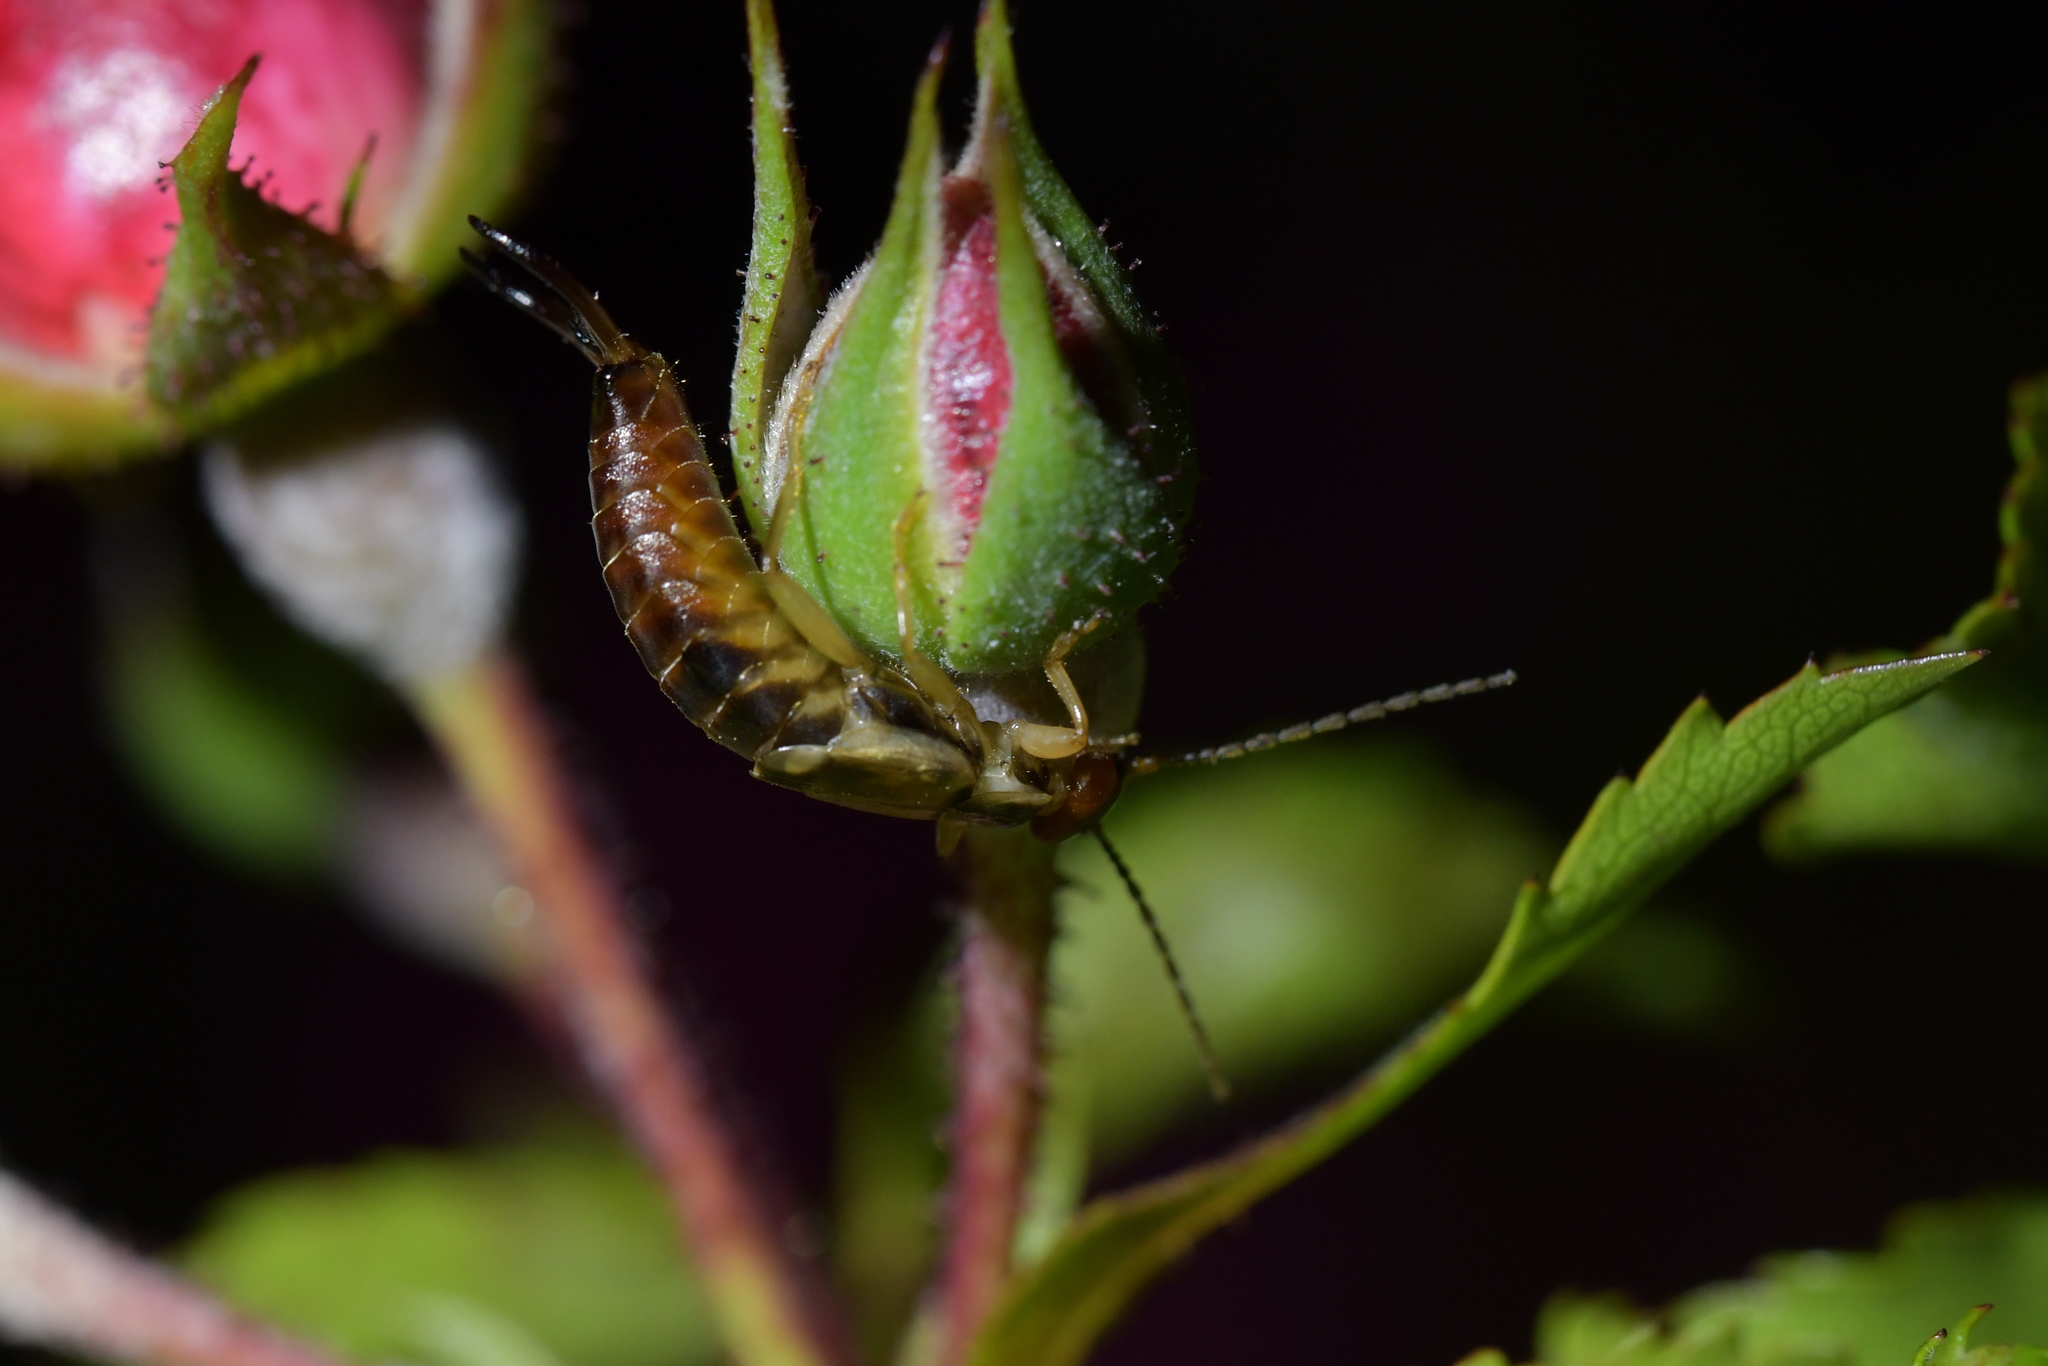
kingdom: Animalia
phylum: Arthropoda
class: Insecta
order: Dermaptera
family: Forficulidae
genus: Forficula
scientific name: Forficula
